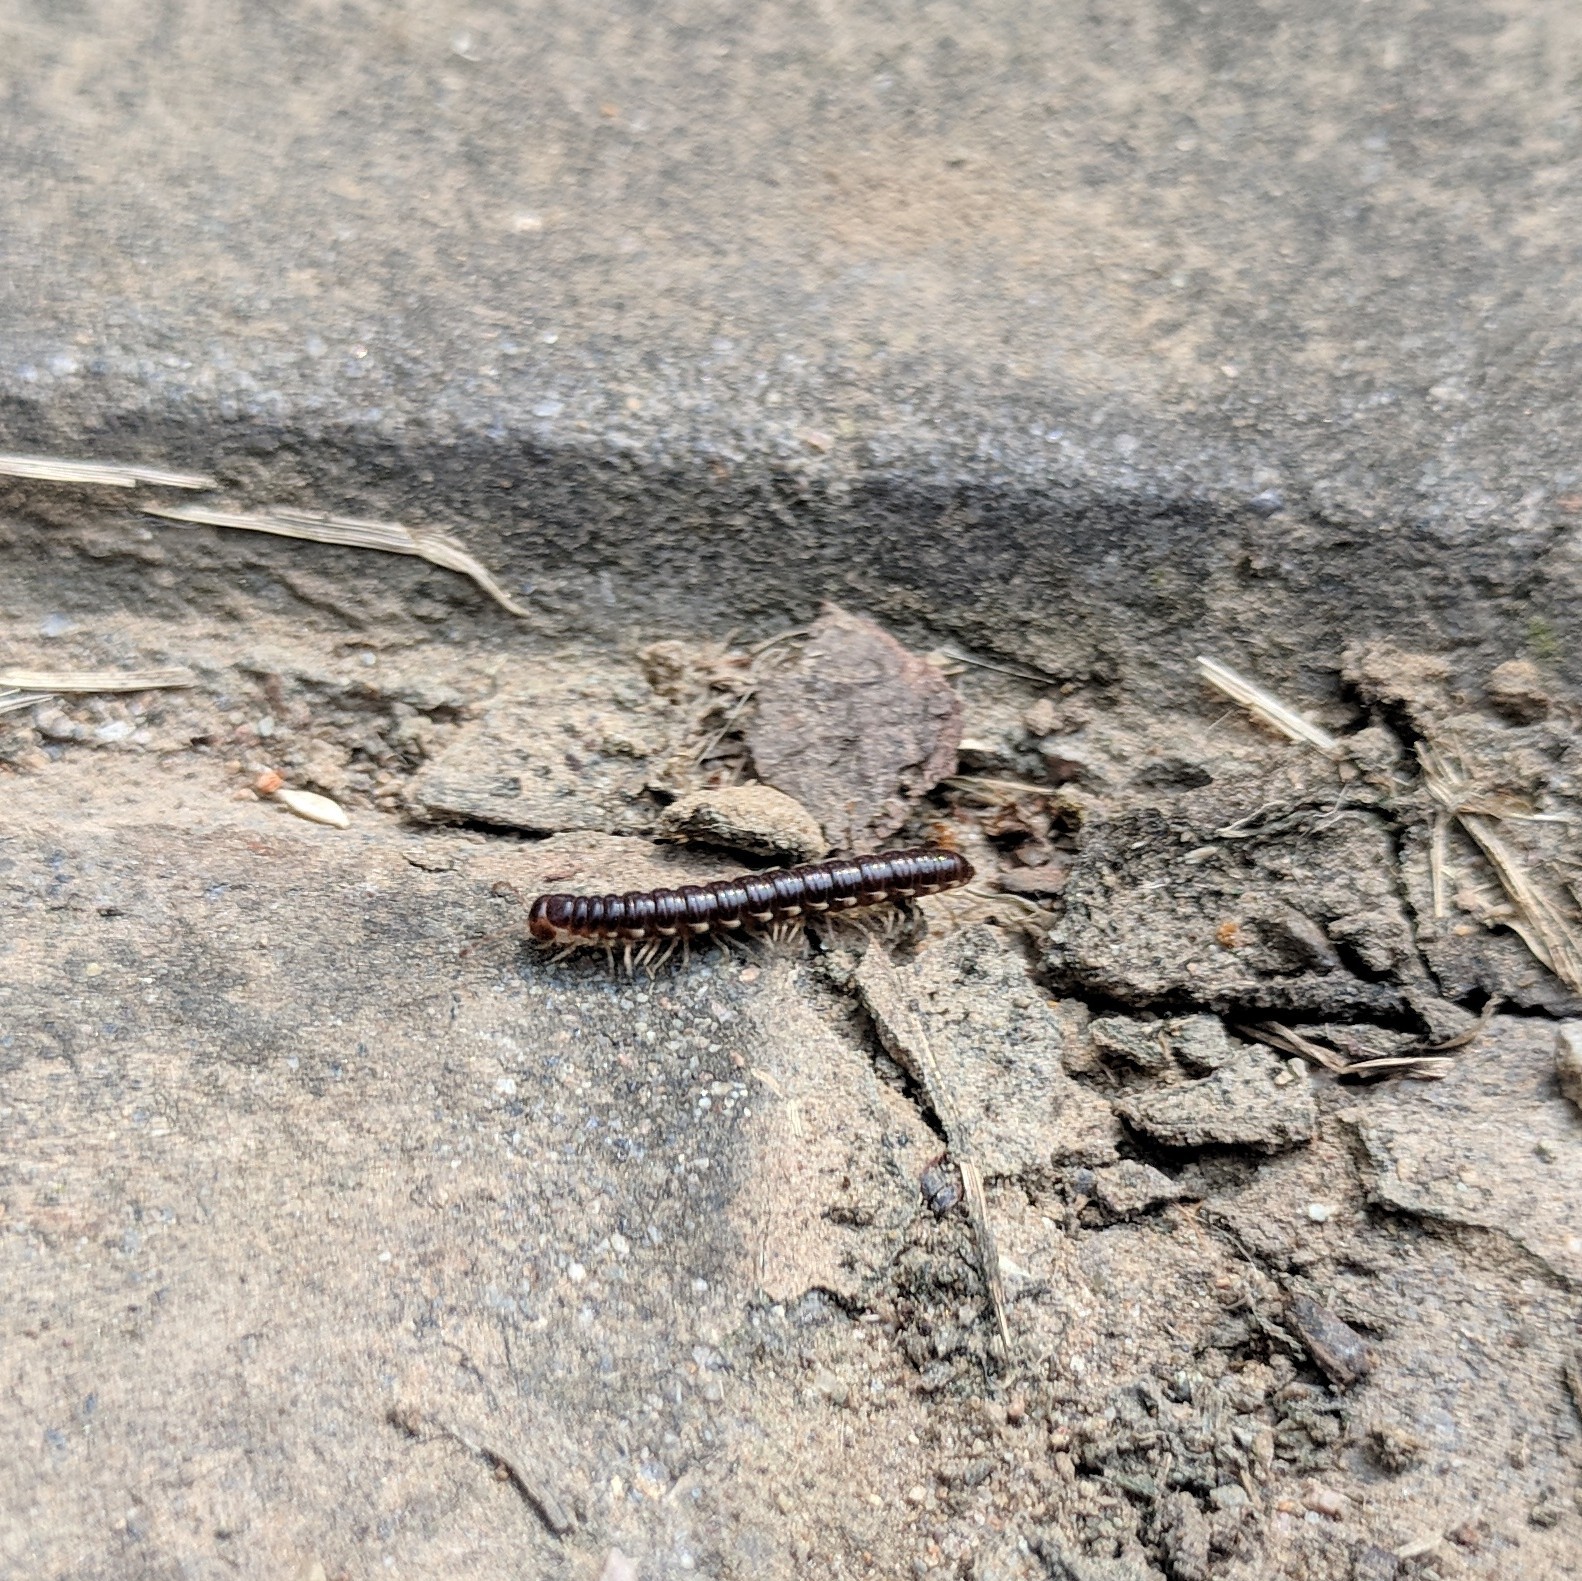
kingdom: Animalia
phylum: Arthropoda
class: Diplopoda
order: Polydesmida
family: Paradoxosomatidae
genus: Orthomorphella
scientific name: Orthomorphella pekuensis
